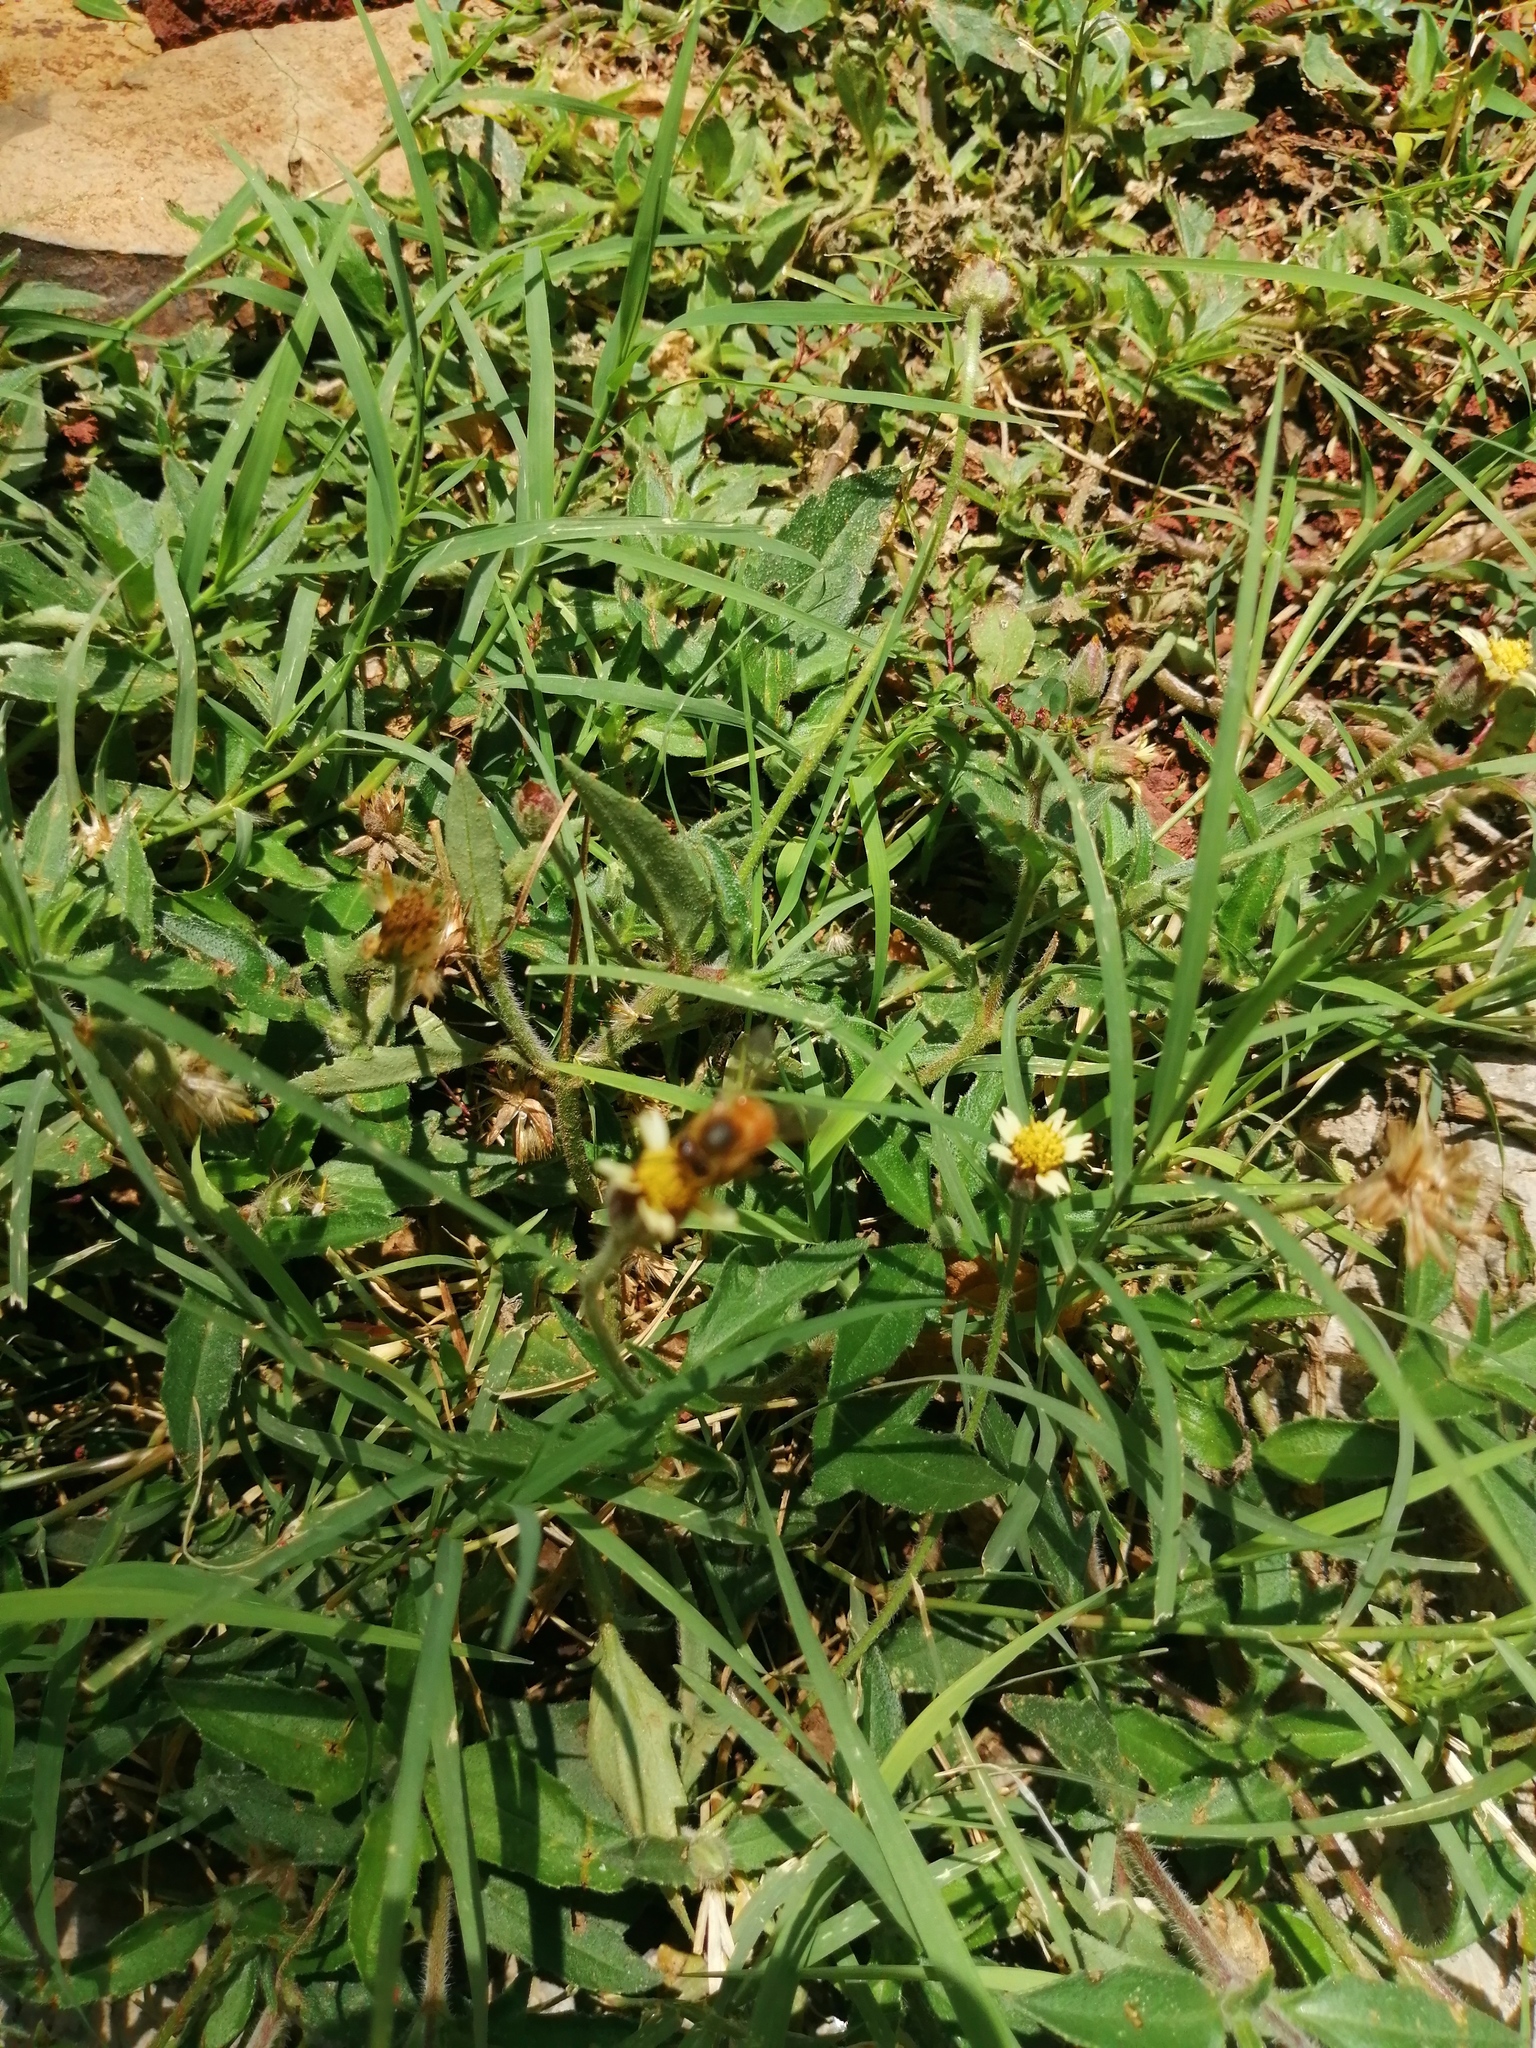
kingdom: Animalia
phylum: Arthropoda
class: Insecta
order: Hymenoptera
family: Apidae
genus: Apis
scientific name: Apis mellifera
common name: Honey bee
